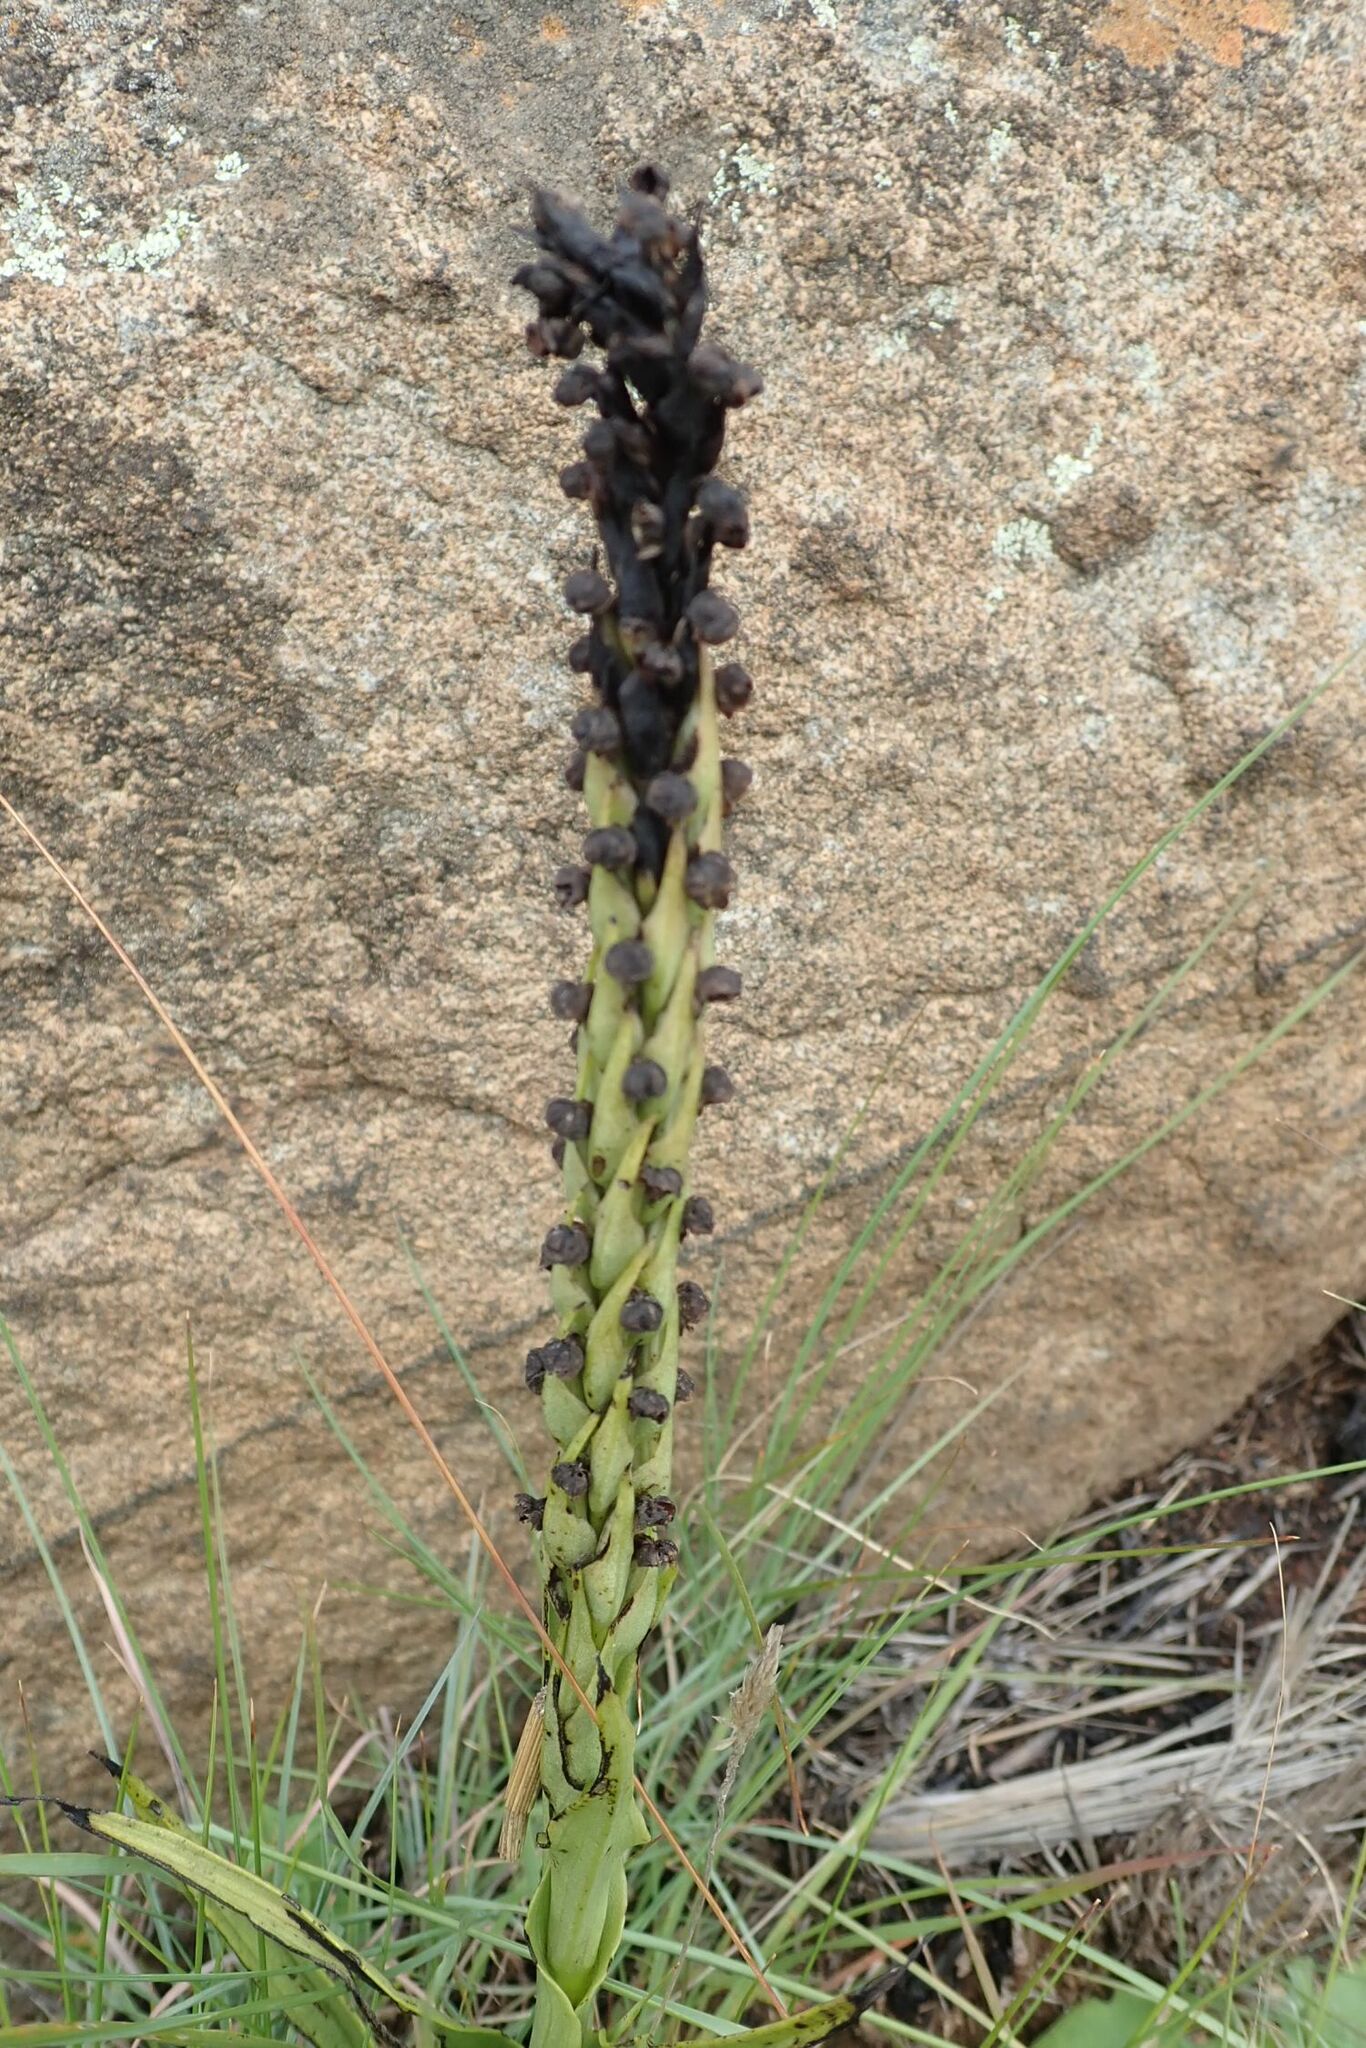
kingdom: Plantae
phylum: Tracheophyta
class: Liliopsida
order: Asparagales
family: Orchidaceae
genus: Corycium
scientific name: Corycium nigrescens
